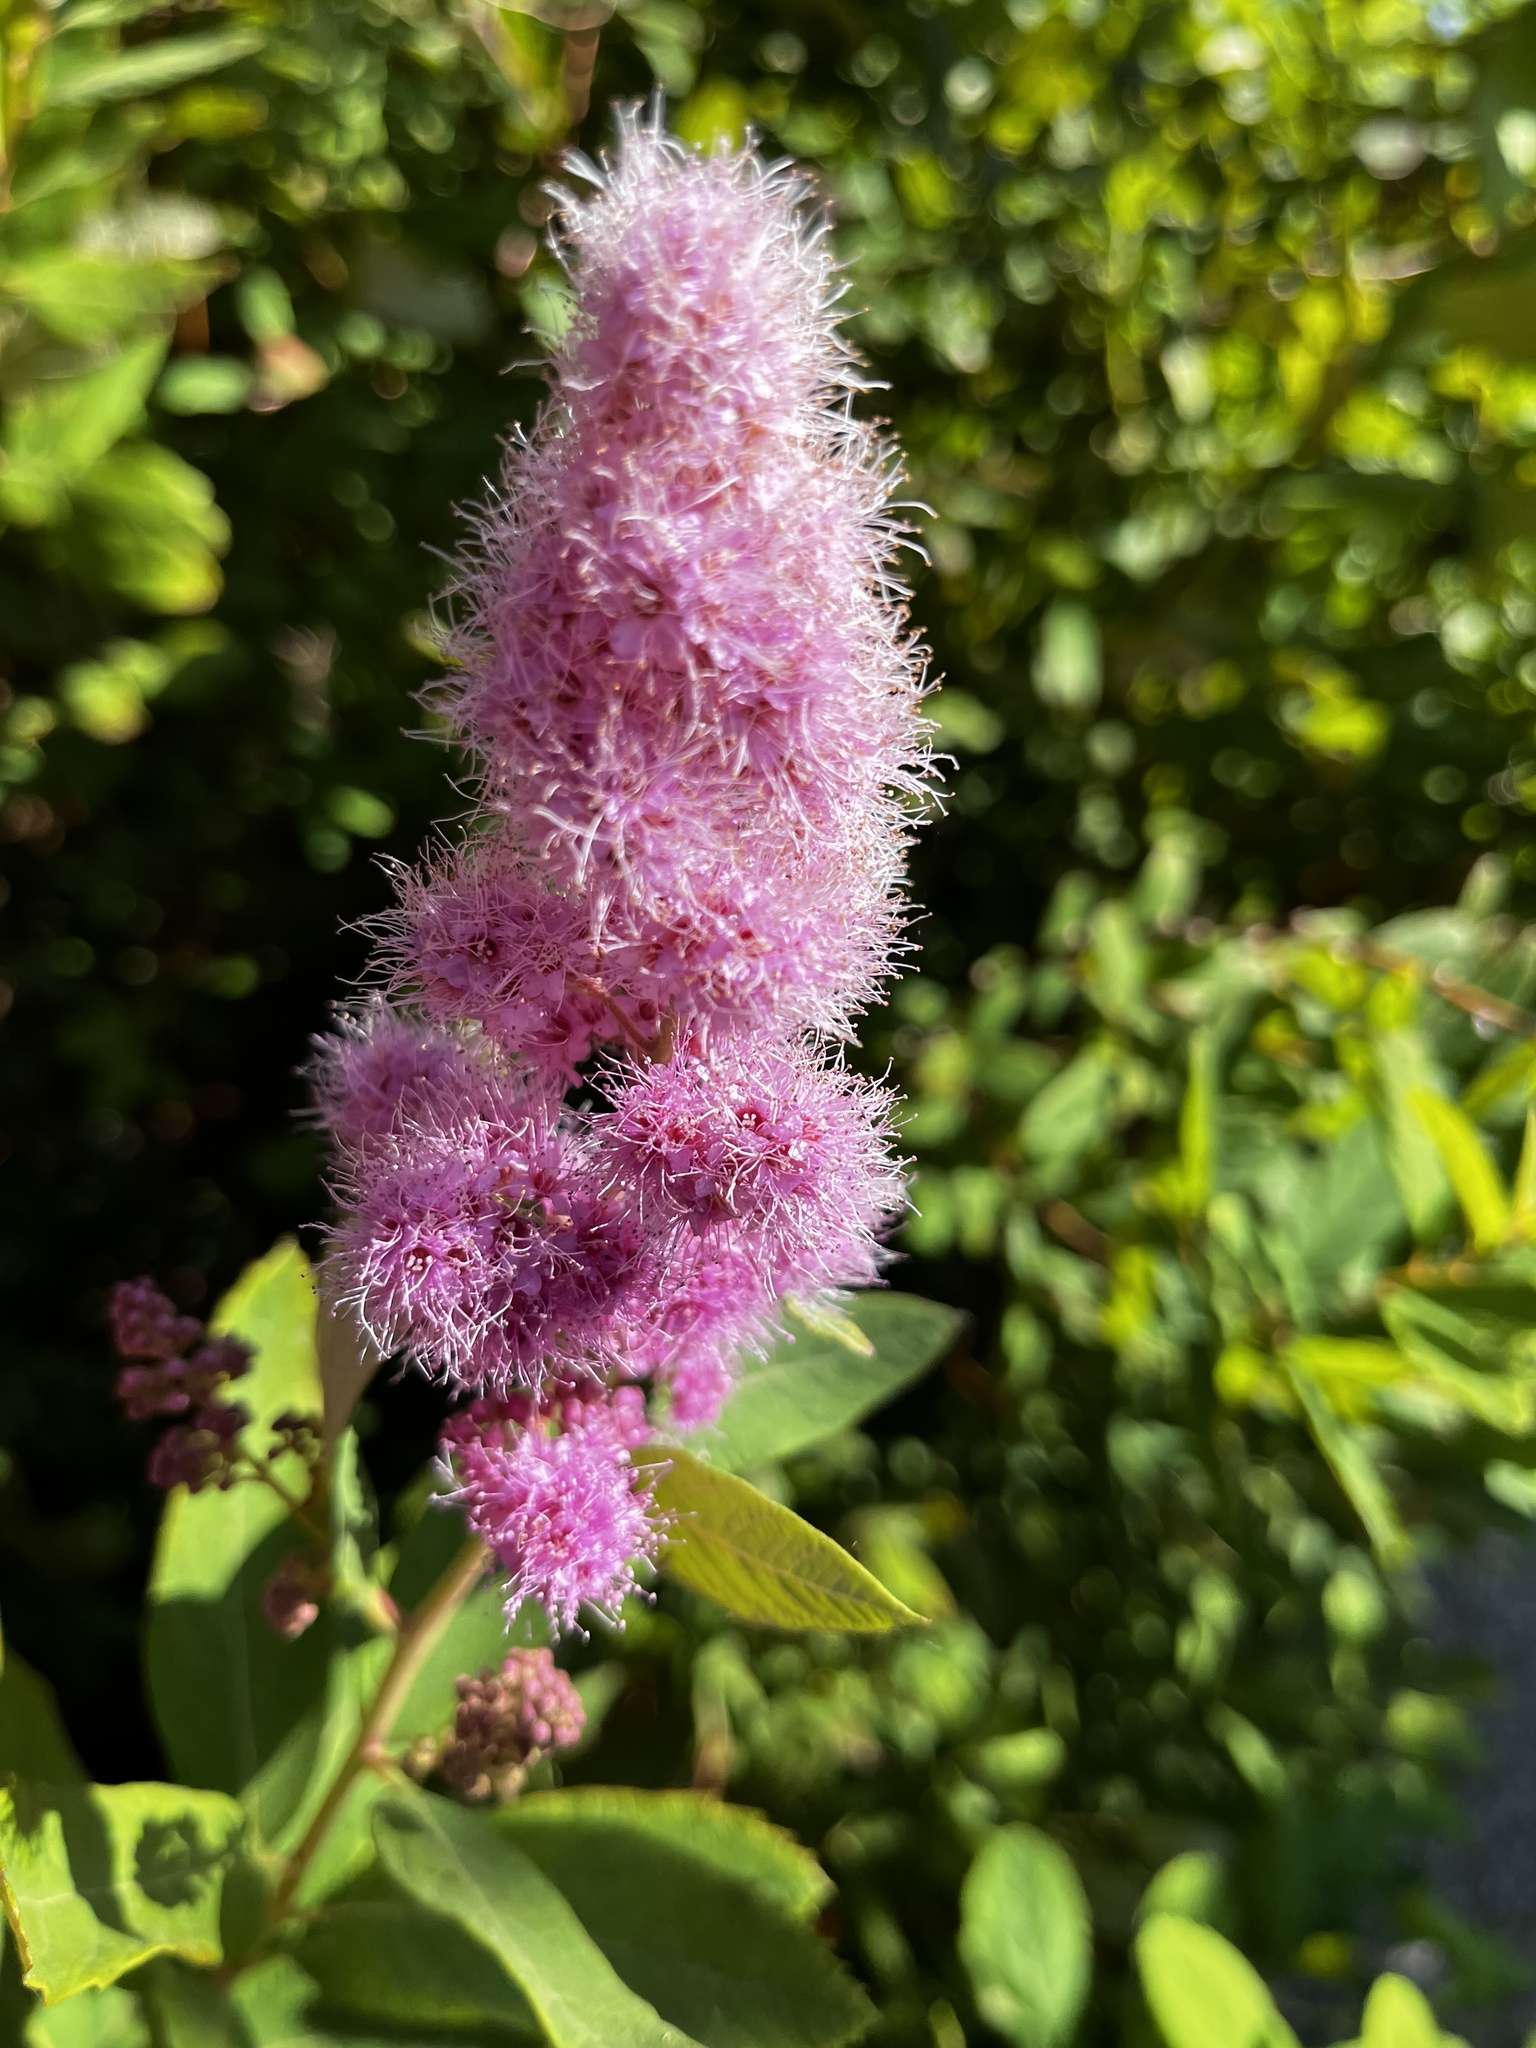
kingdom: Plantae
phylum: Tracheophyta
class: Magnoliopsida
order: Rosales
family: Rosaceae
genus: Spiraea
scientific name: Spiraea douglasii
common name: Steeplebush
